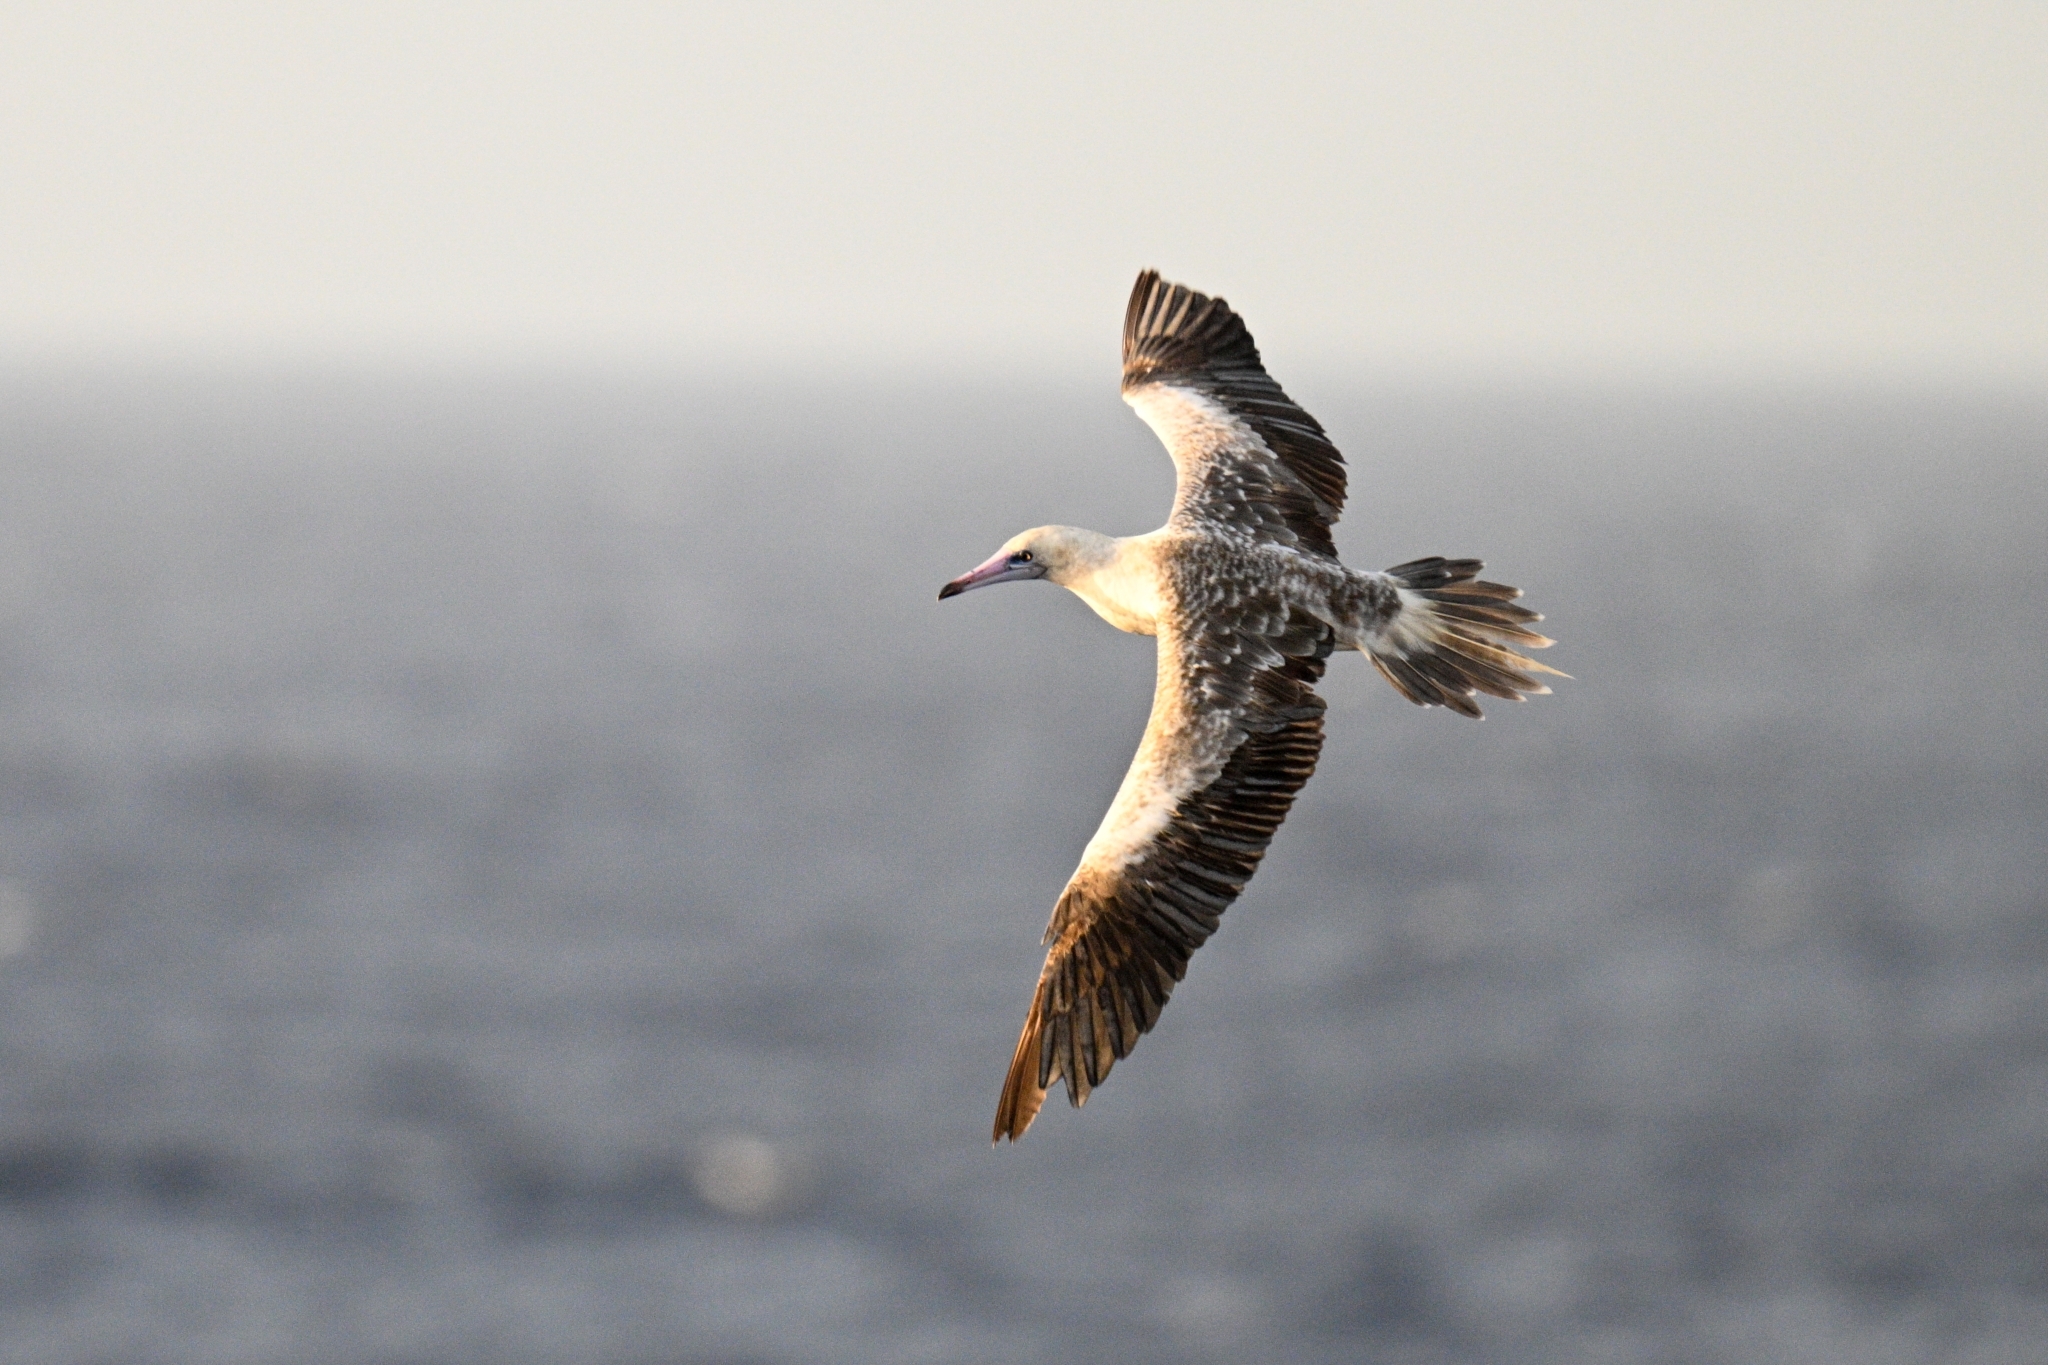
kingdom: Animalia
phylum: Chordata
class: Aves
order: Suliformes
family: Sulidae
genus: Sula
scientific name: Sula sula
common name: Red-footed booby
